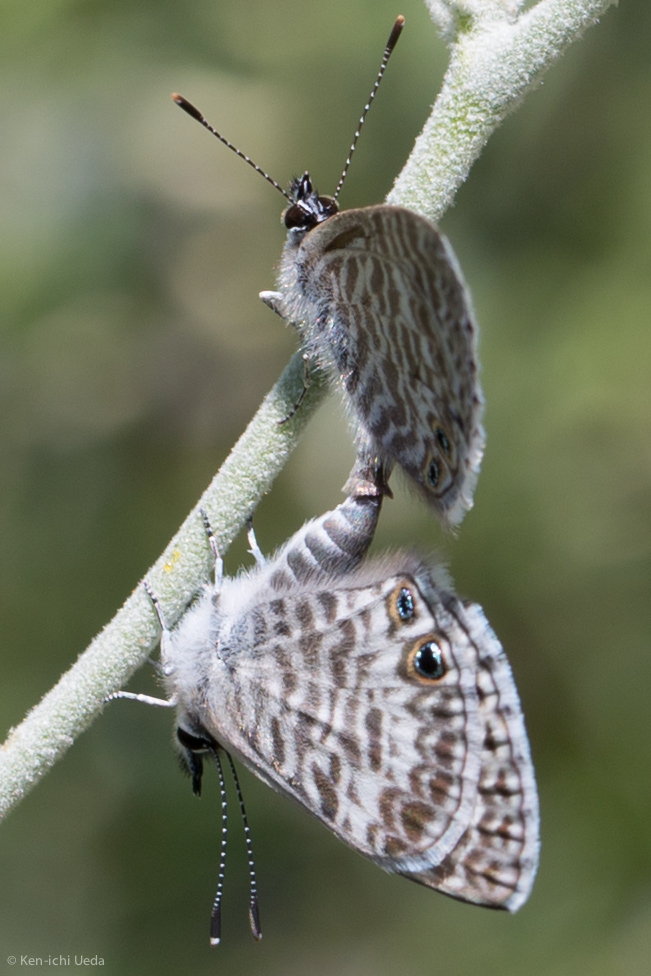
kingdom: Animalia
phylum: Arthropoda
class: Insecta
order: Lepidoptera
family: Lycaenidae
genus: Leptotes
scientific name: Leptotes marina
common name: Marine blue
